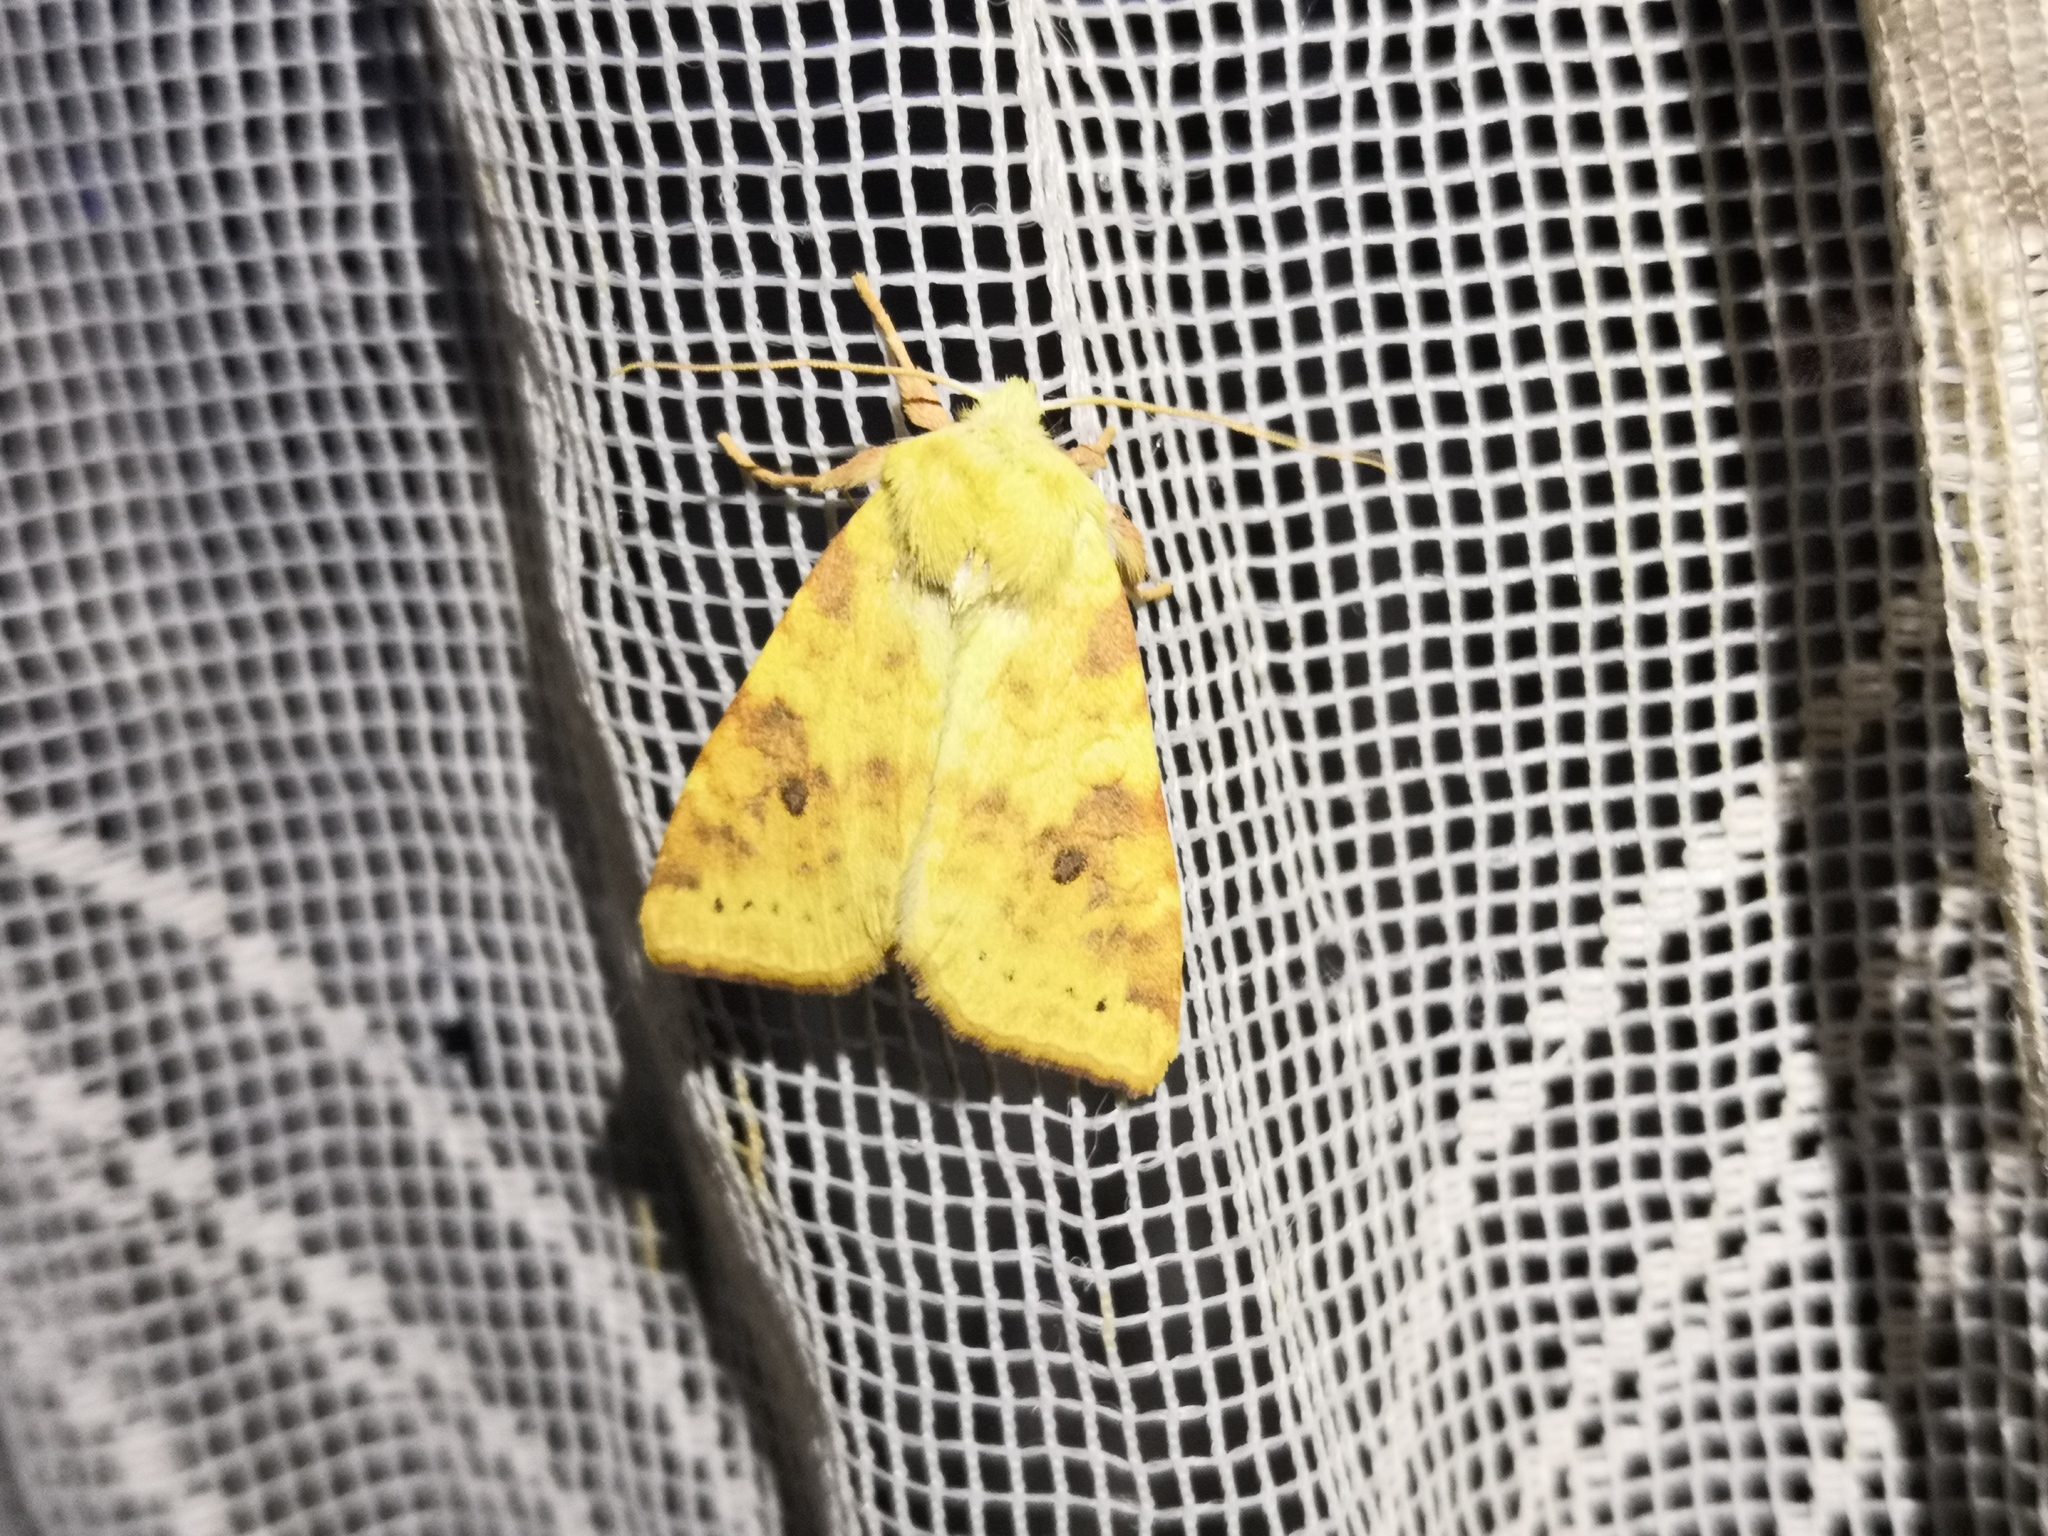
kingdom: Animalia
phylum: Arthropoda
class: Insecta
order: Lepidoptera
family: Noctuidae
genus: Xanthia
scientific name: Xanthia icteritia
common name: The sallow
